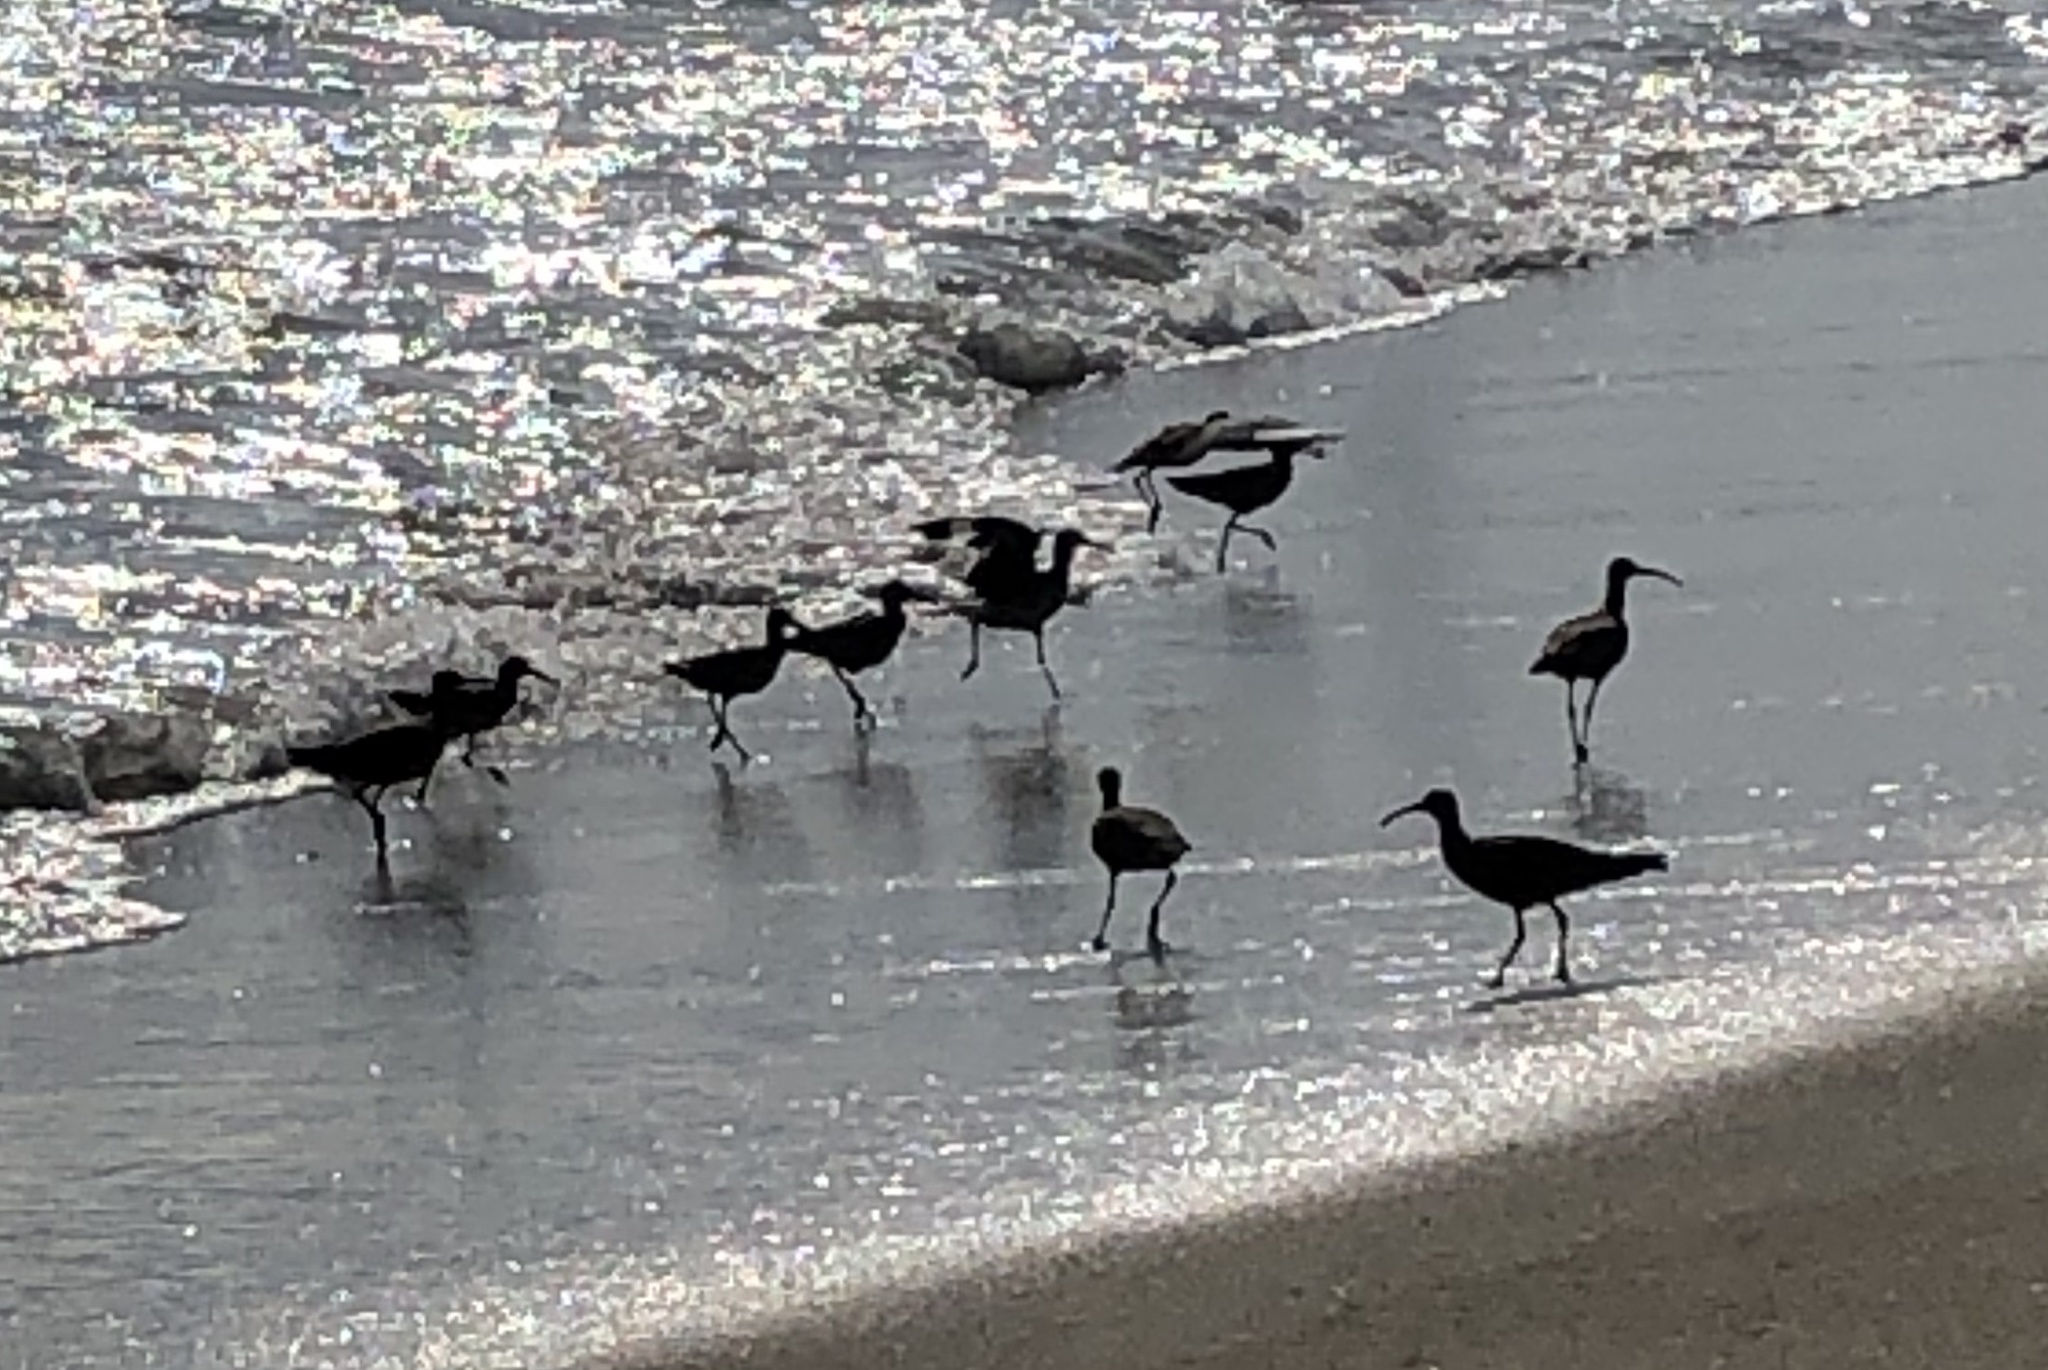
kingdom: Animalia
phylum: Chordata
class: Aves
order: Charadriiformes
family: Scolopacidae
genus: Numenius
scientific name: Numenius phaeopus
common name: Whimbrel
